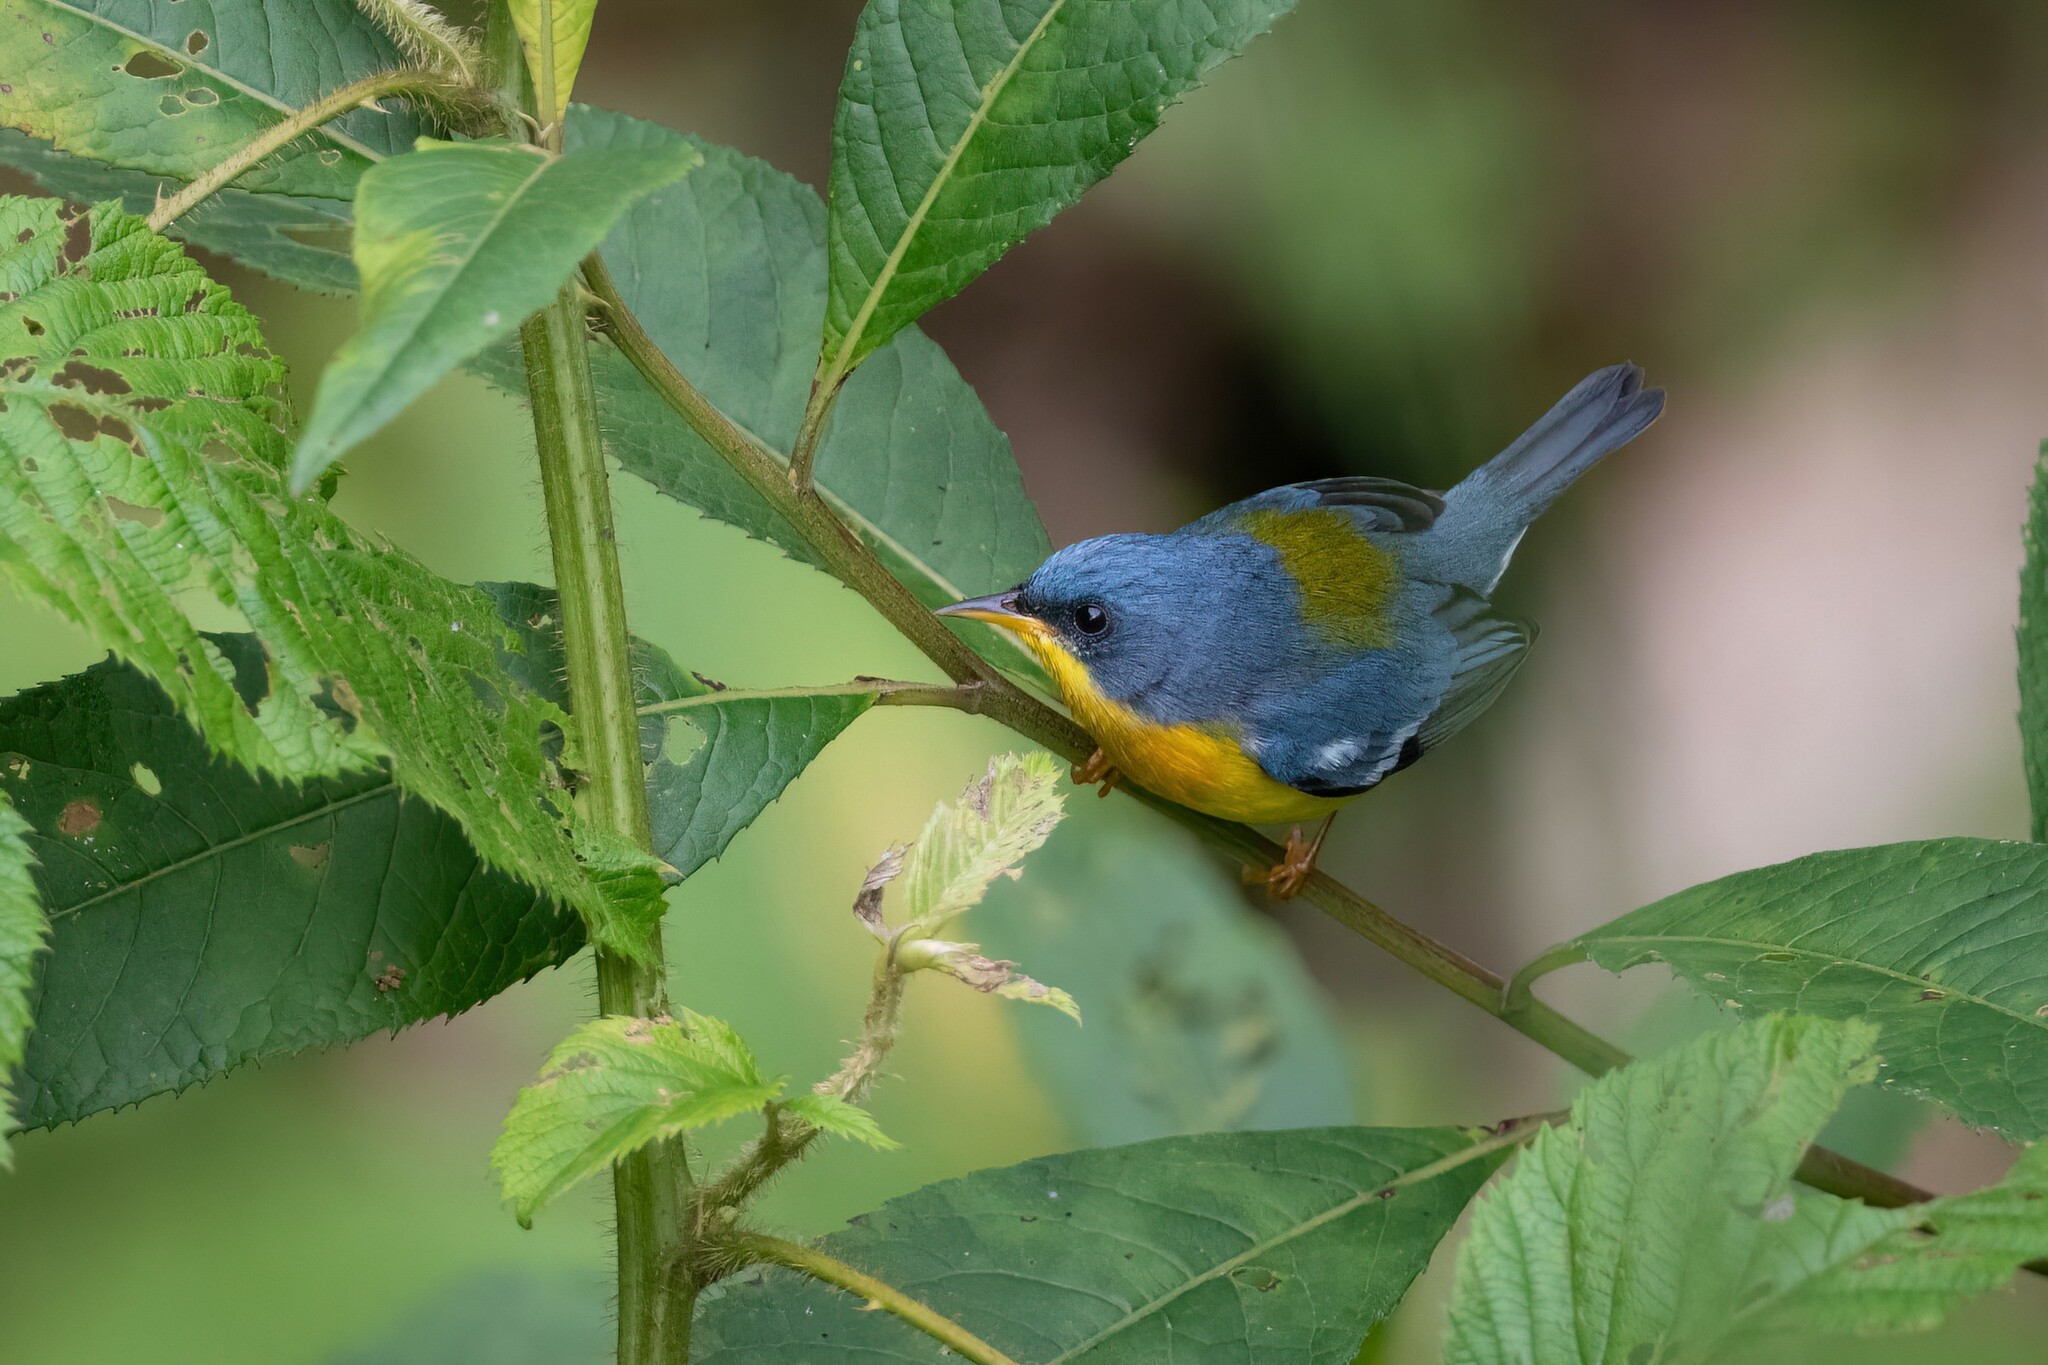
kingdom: Animalia
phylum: Chordata
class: Aves
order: Passeriformes
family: Parulidae
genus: Setophaga
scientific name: Setophaga pitiayumi
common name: Tropical parula
